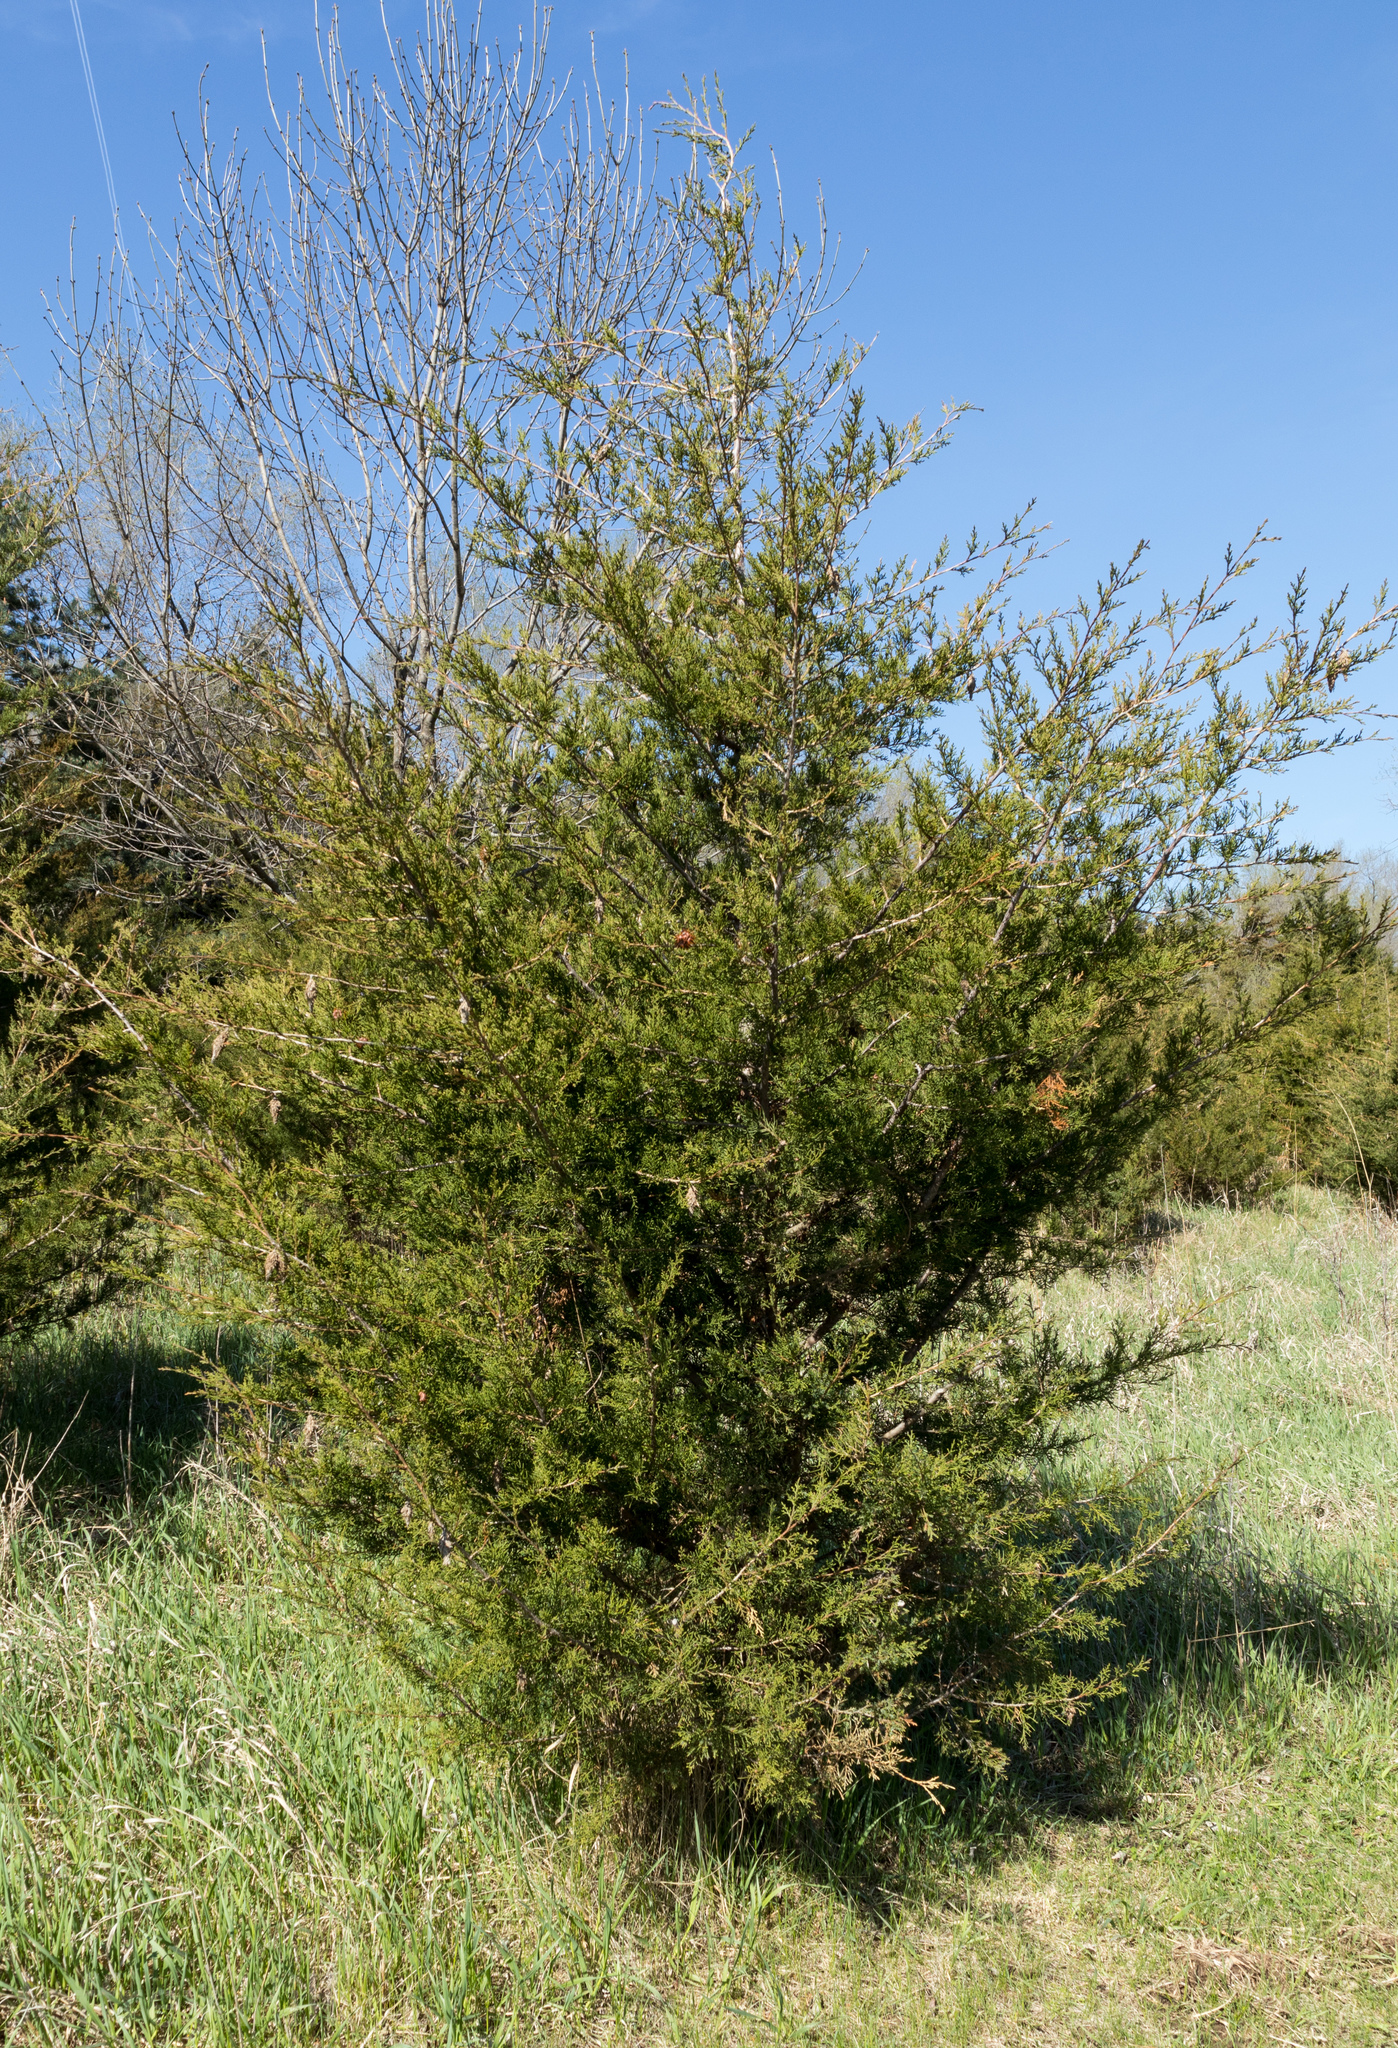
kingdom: Plantae
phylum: Tracheophyta
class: Pinopsida
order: Pinales
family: Cupressaceae
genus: Juniperus
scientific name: Juniperus virginiana
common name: Red juniper
